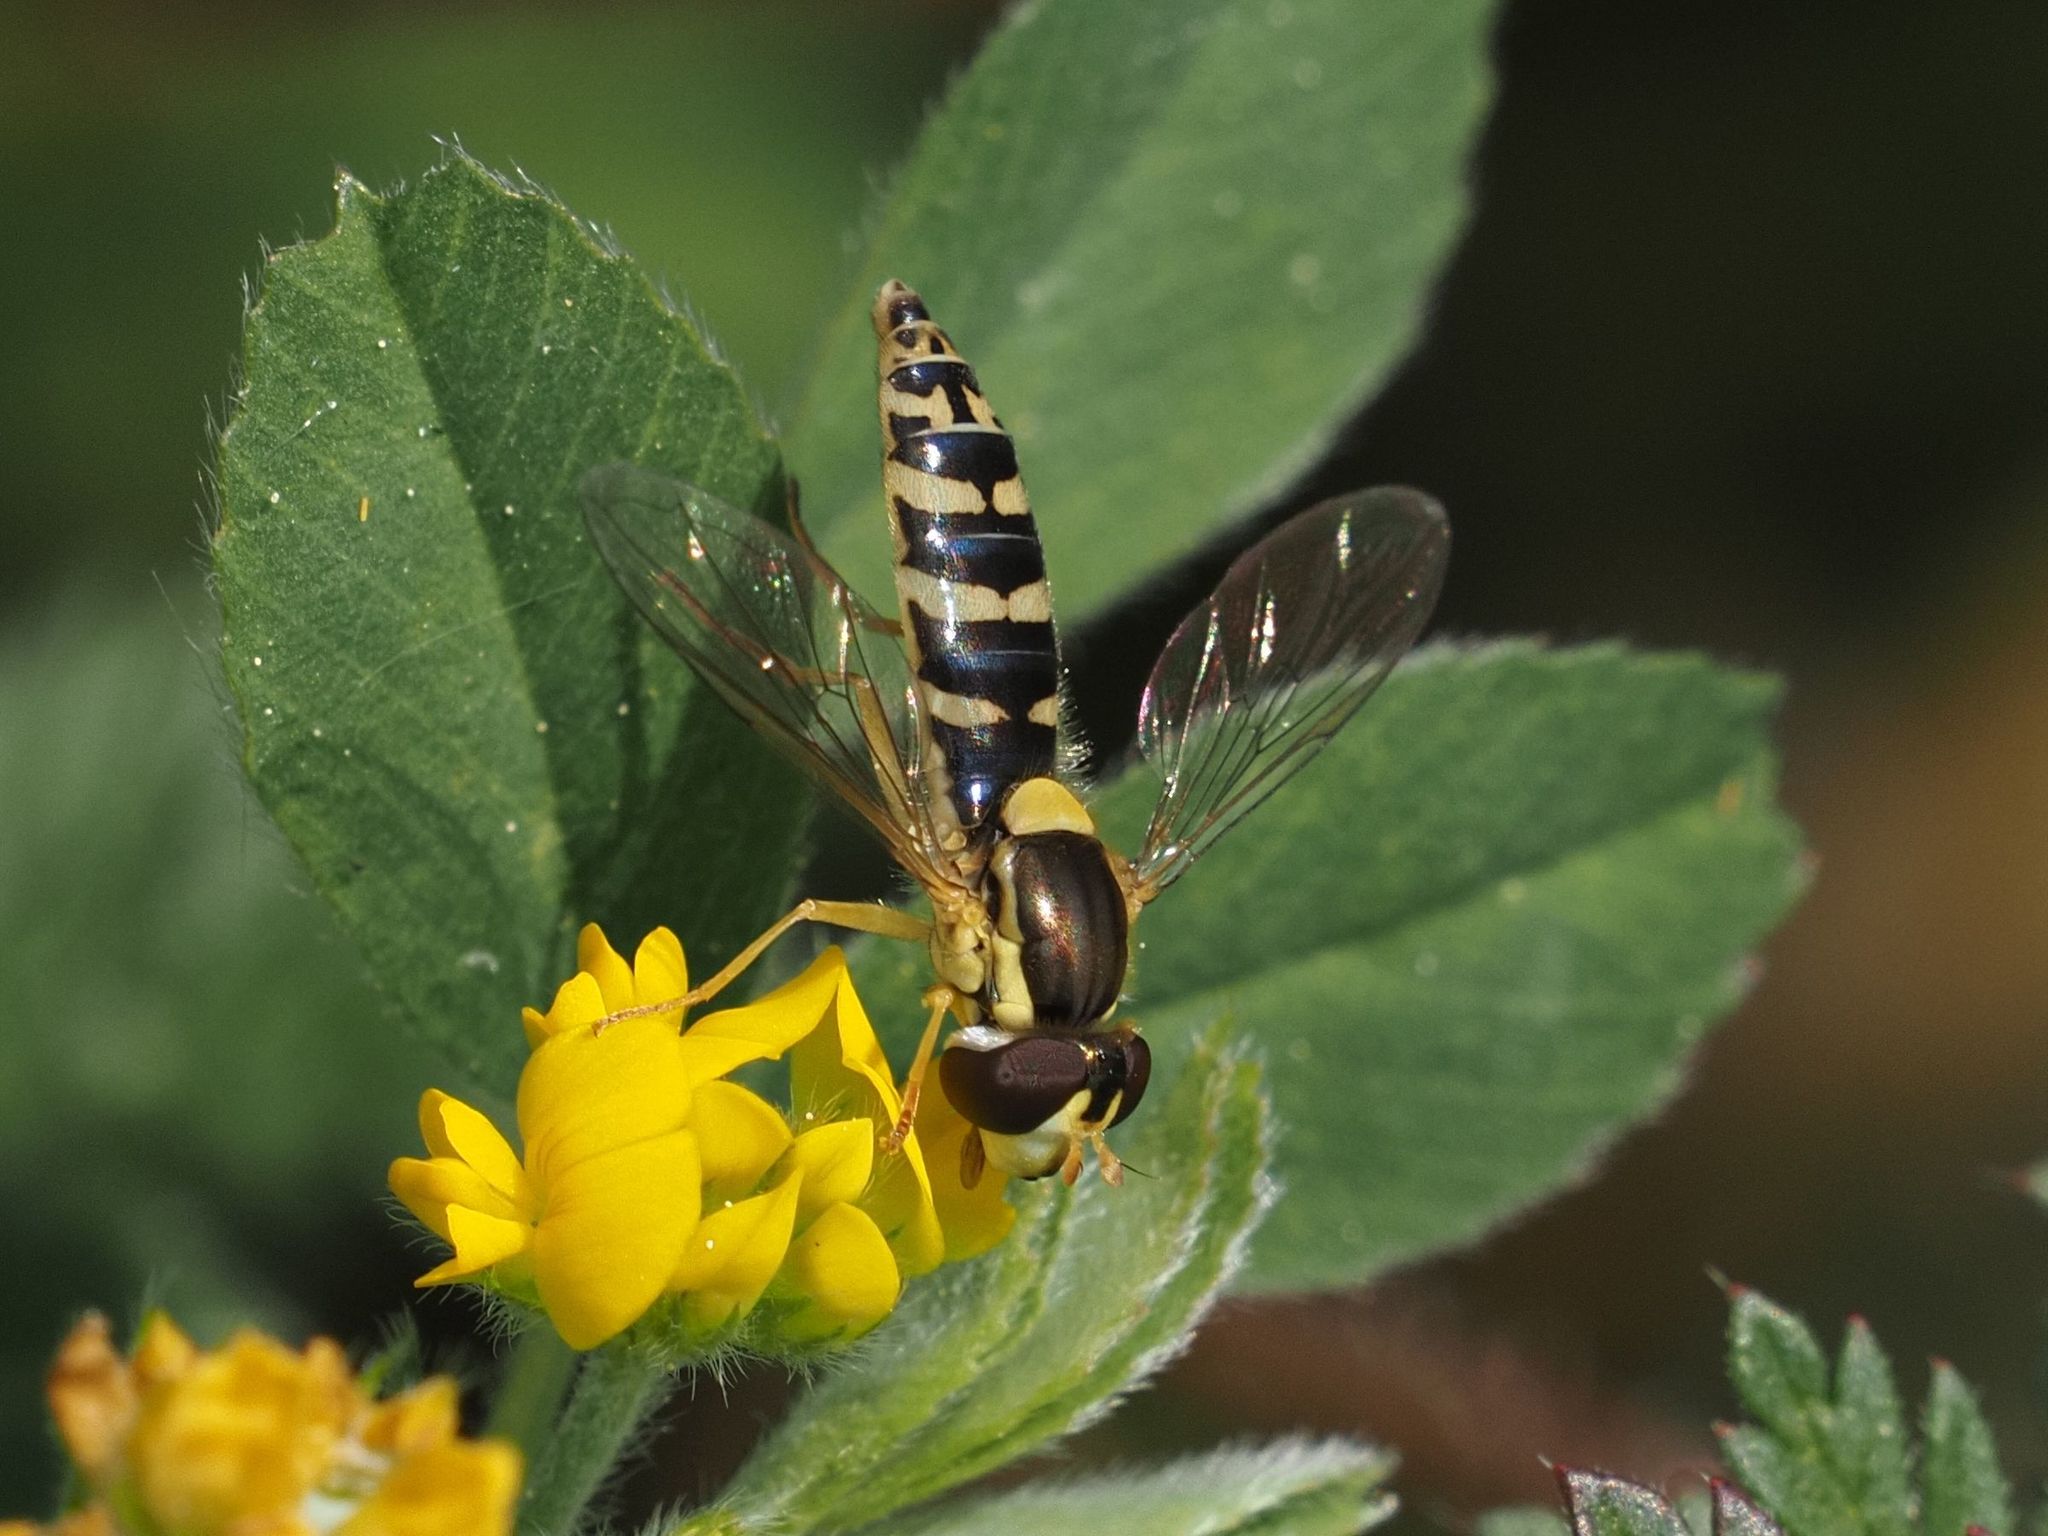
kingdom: Animalia
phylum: Arthropoda
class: Insecta
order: Diptera
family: Syrphidae
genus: Sphaerophoria
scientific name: Sphaerophoria
